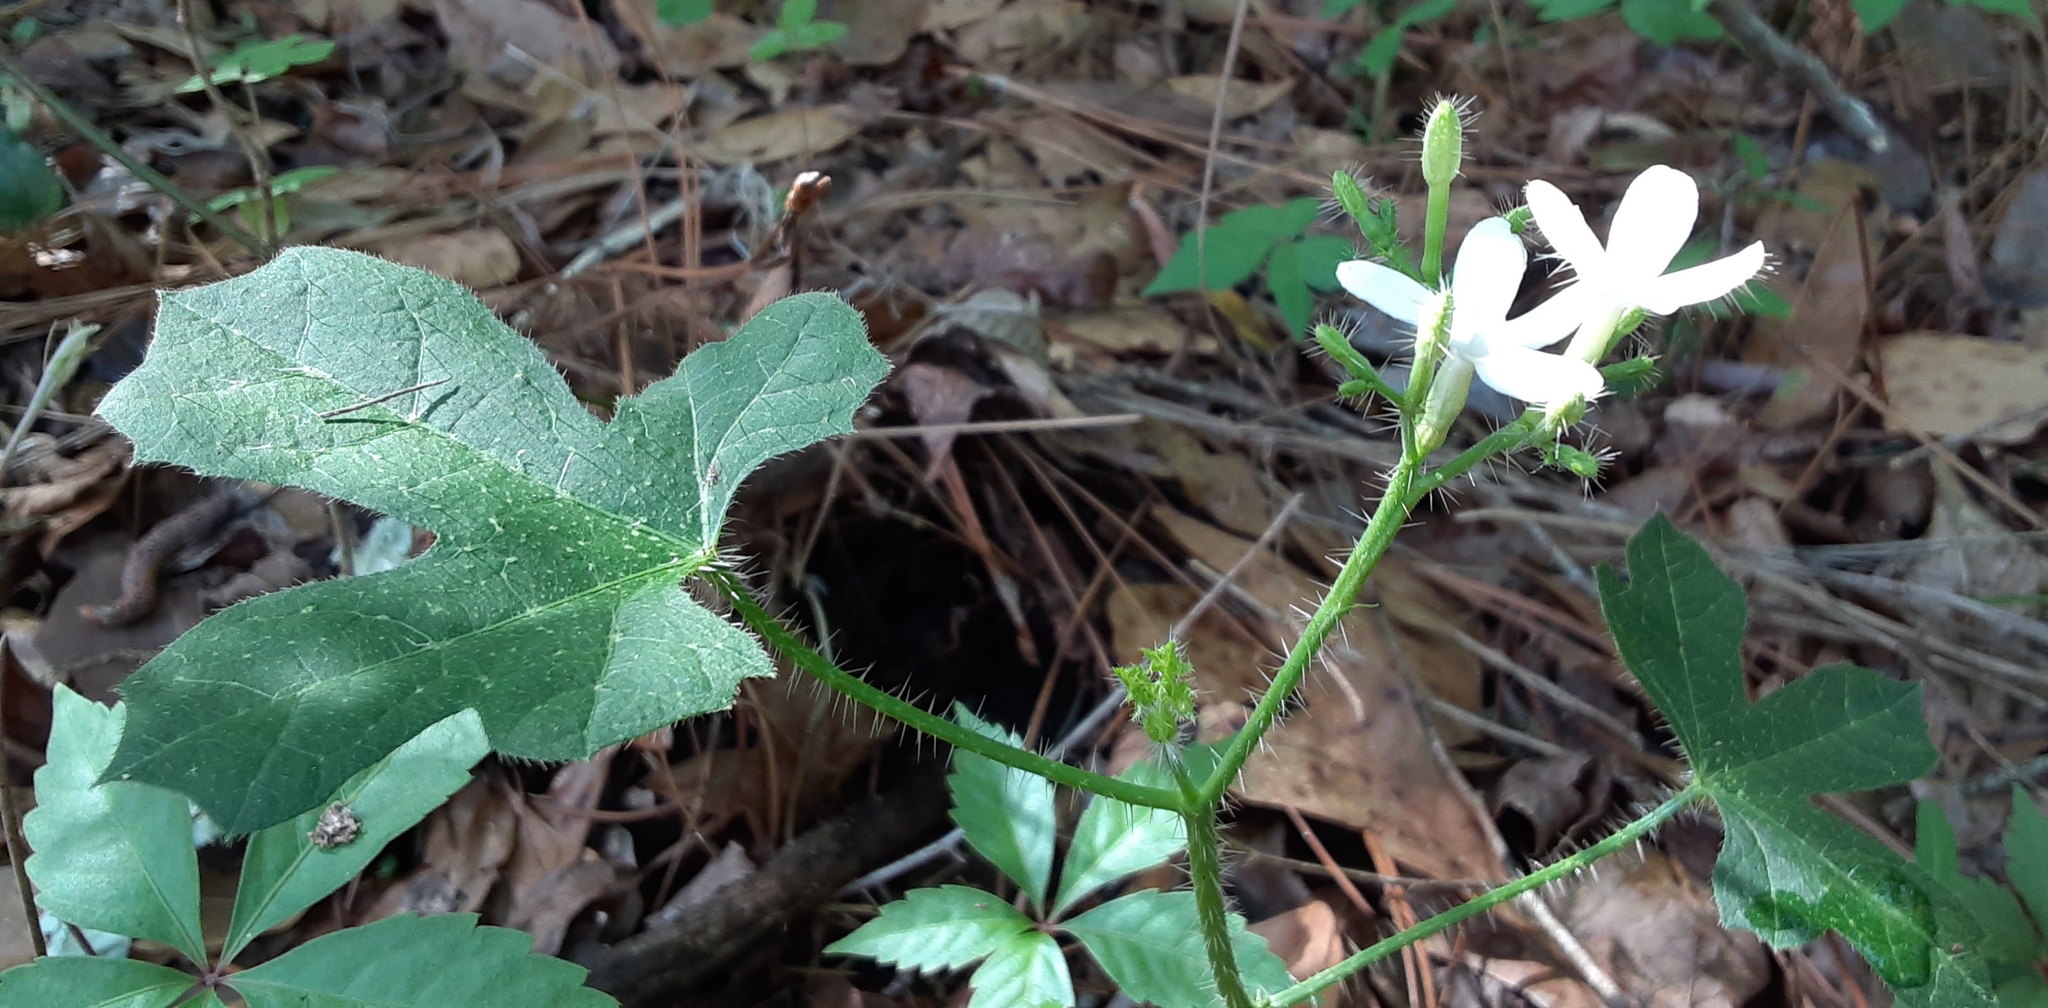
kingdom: Plantae
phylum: Tracheophyta
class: Magnoliopsida
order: Malpighiales
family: Euphorbiaceae
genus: Cnidoscolus
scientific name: Cnidoscolus stimulosus
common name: Bull-nettle
